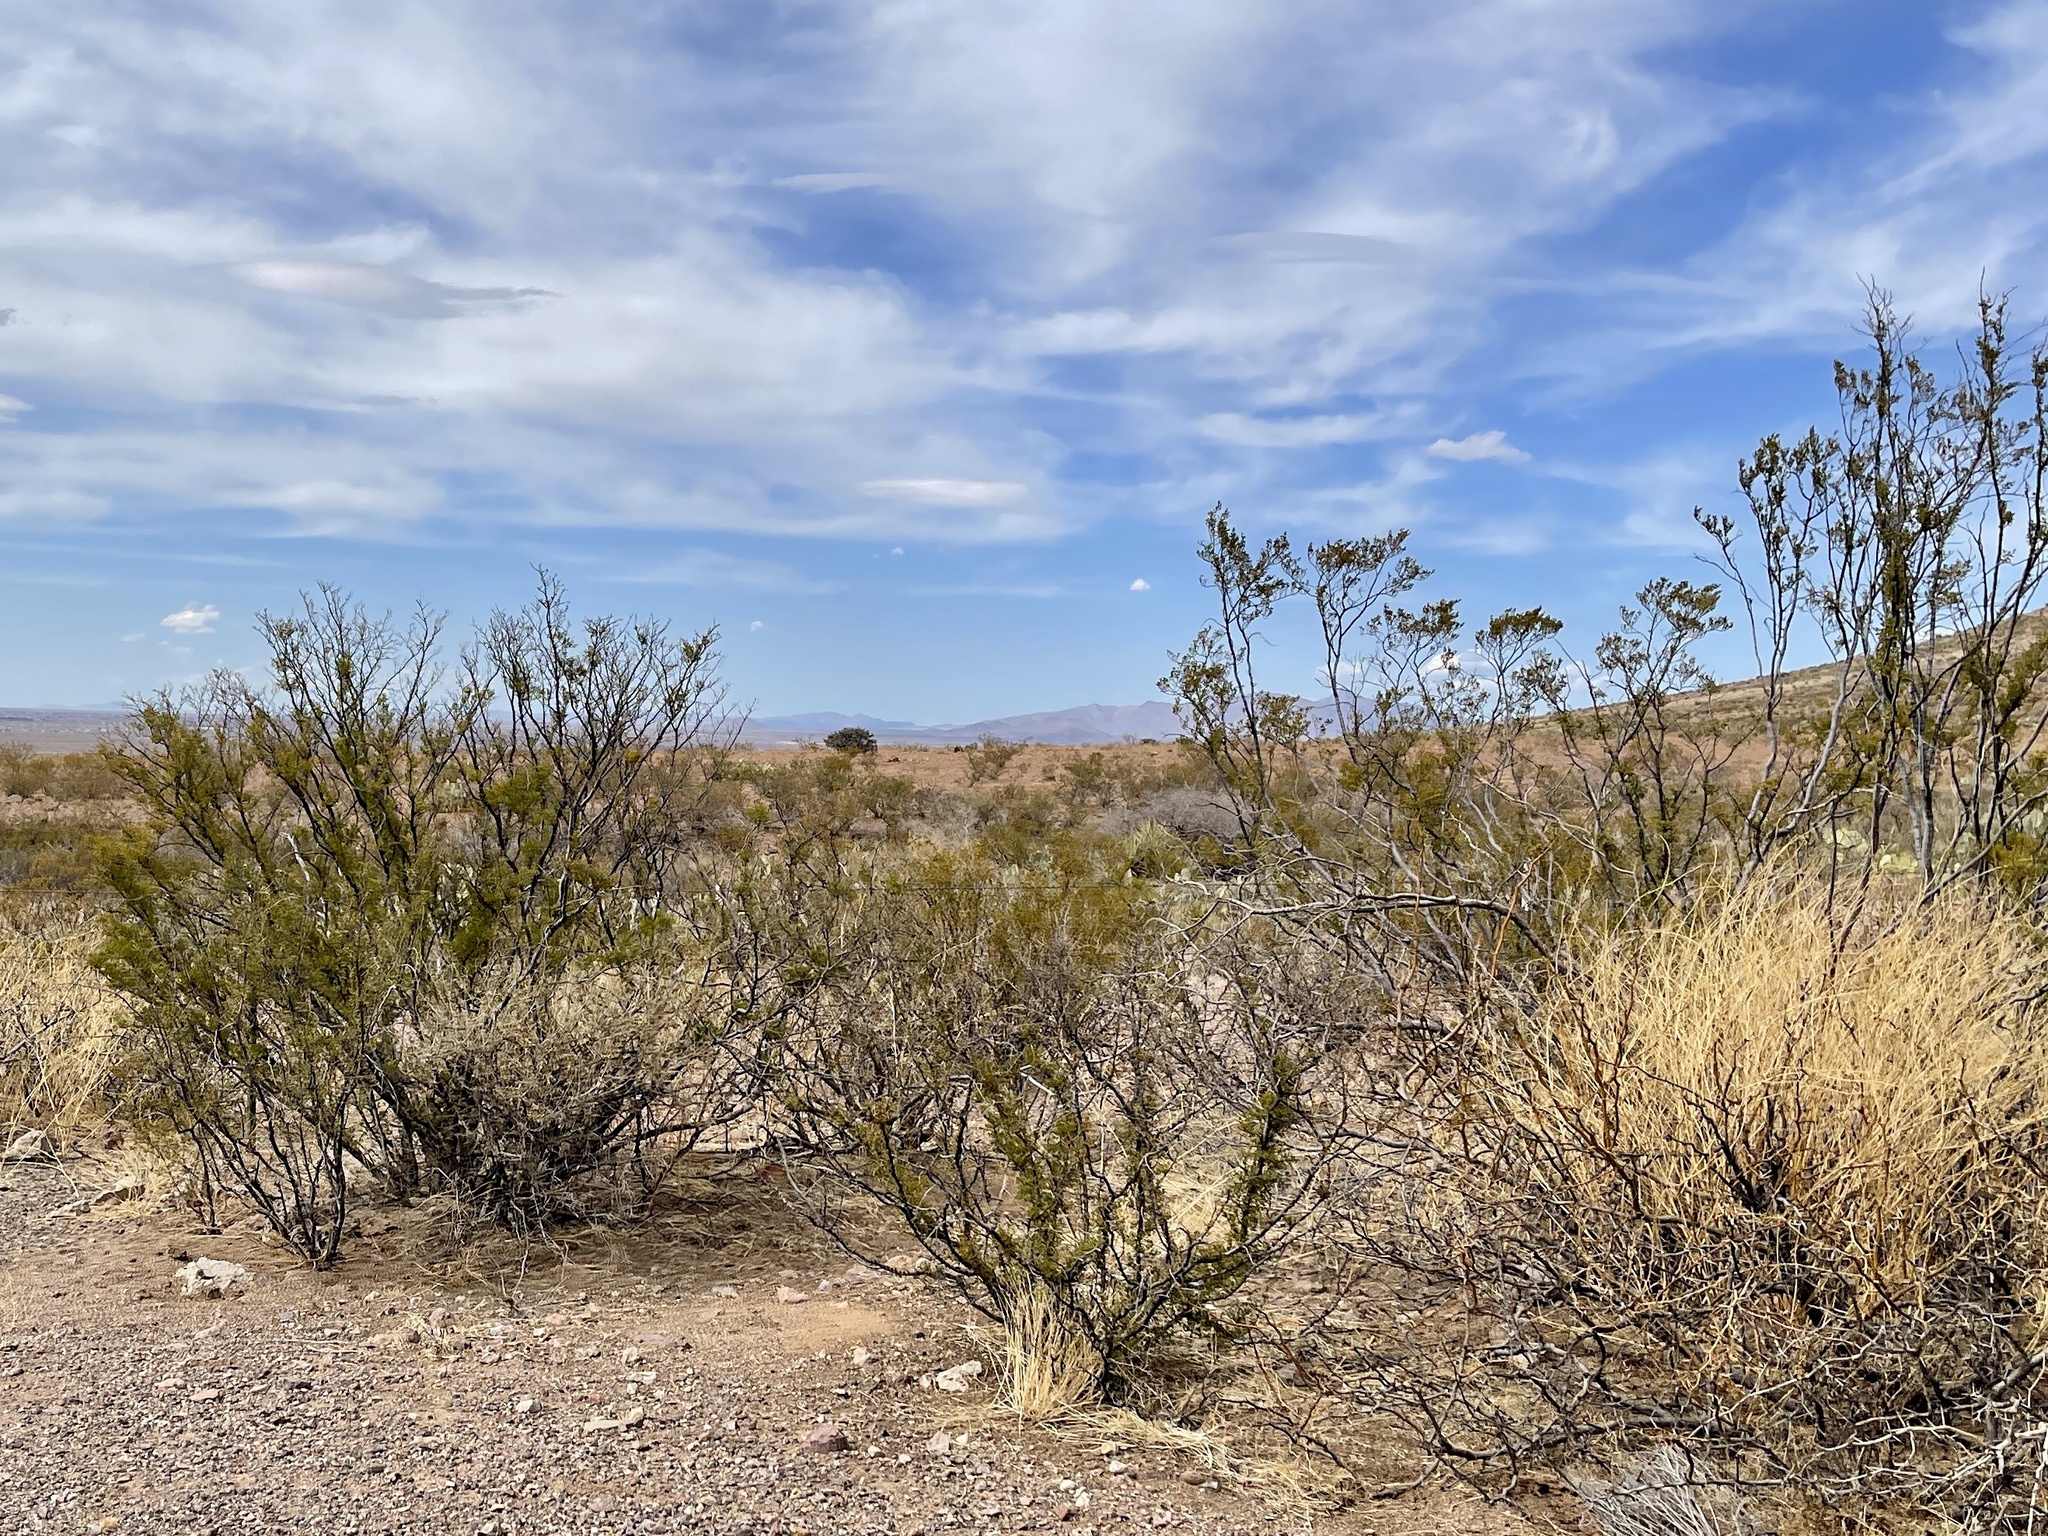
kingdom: Plantae
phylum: Tracheophyta
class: Magnoliopsida
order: Zygophyllales
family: Zygophyllaceae
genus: Larrea
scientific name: Larrea tridentata
